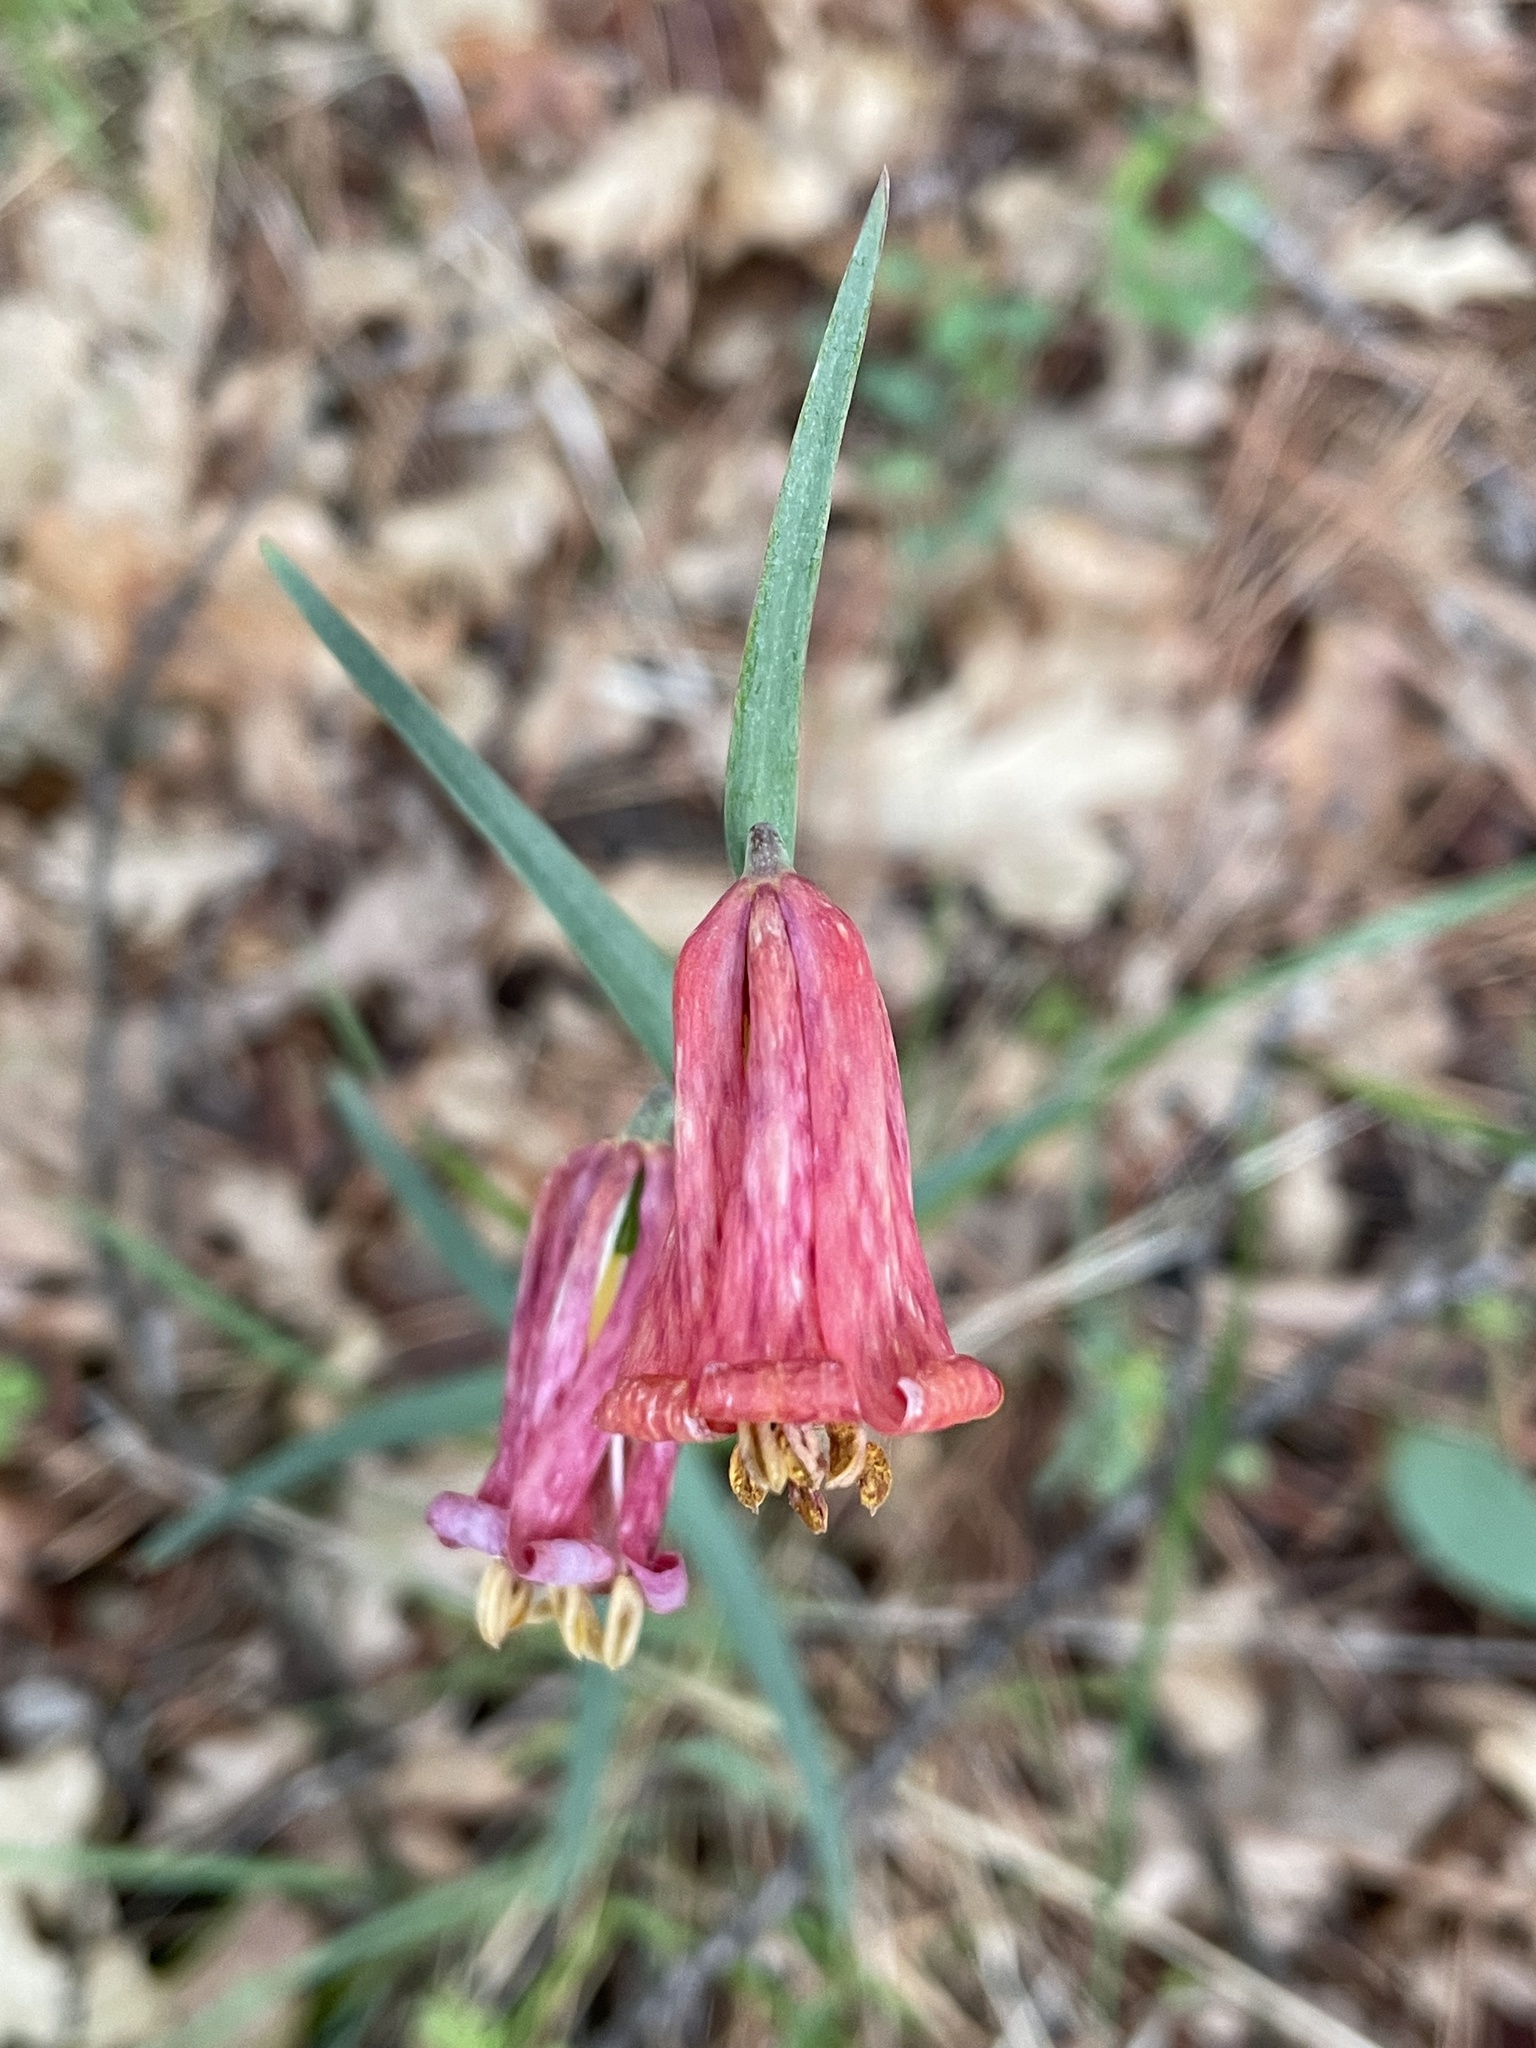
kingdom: Plantae
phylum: Tracheophyta
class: Liliopsida
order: Liliales
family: Liliaceae
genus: Fritillaria
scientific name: Fritillaria recurva
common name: Scarlet fritillary
